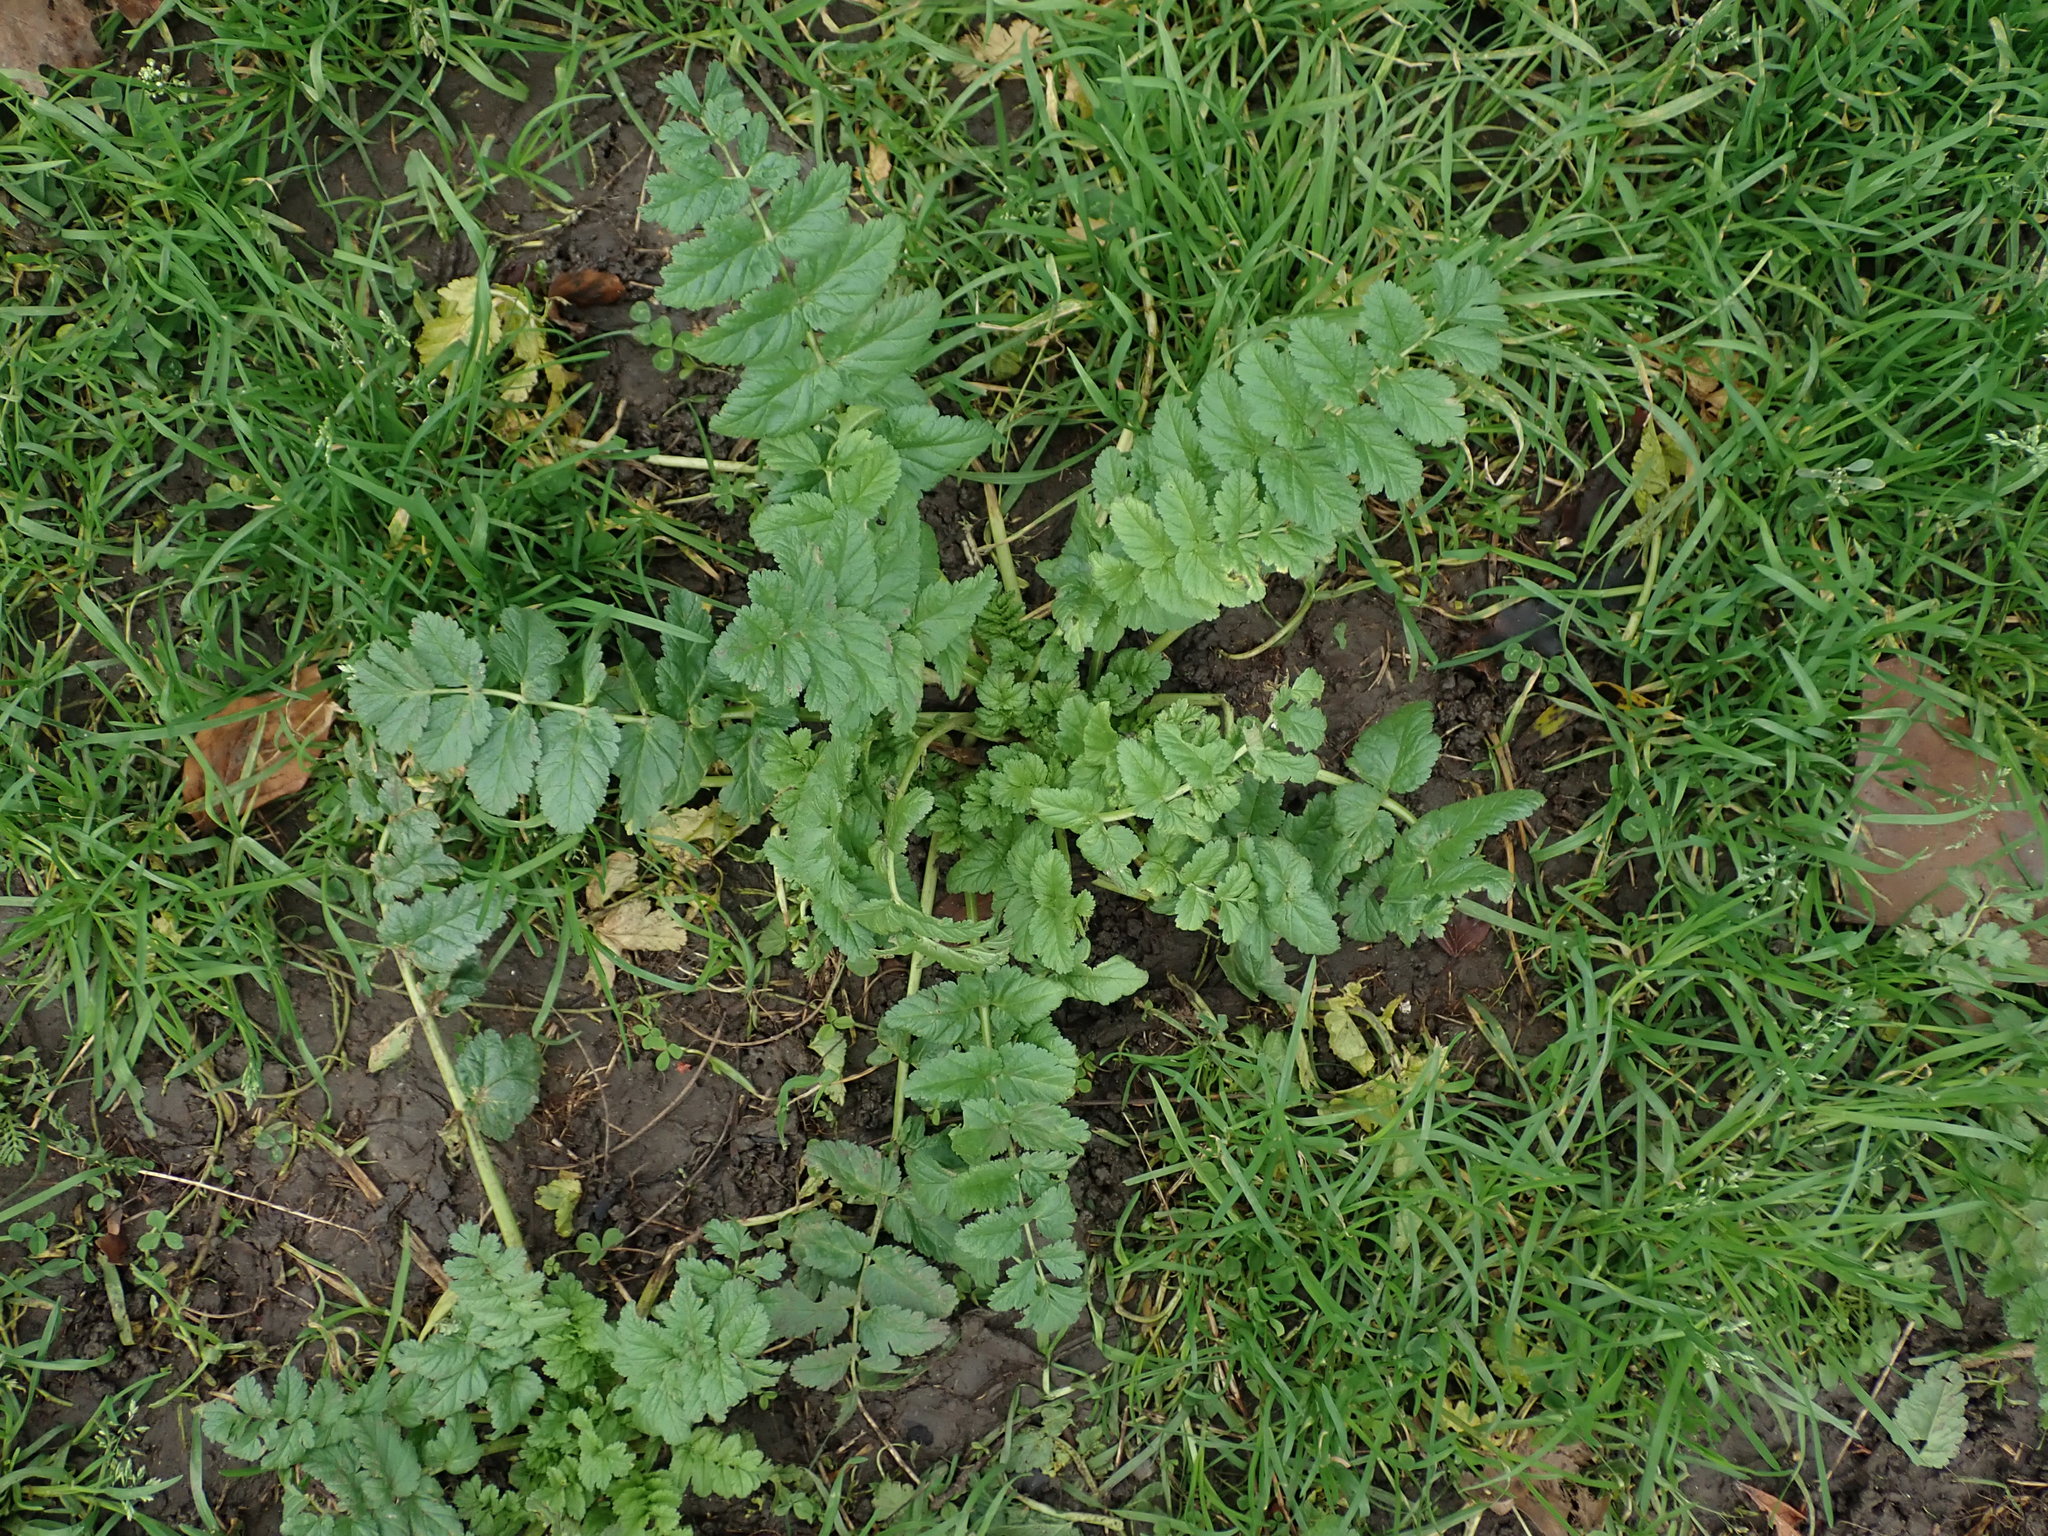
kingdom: Plantae
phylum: Tracheophyta
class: Magnoliopsida
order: Geraniales
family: Geraniaceae
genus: Erodium
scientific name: Erodium moschatum
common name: Musk stork's-bill
